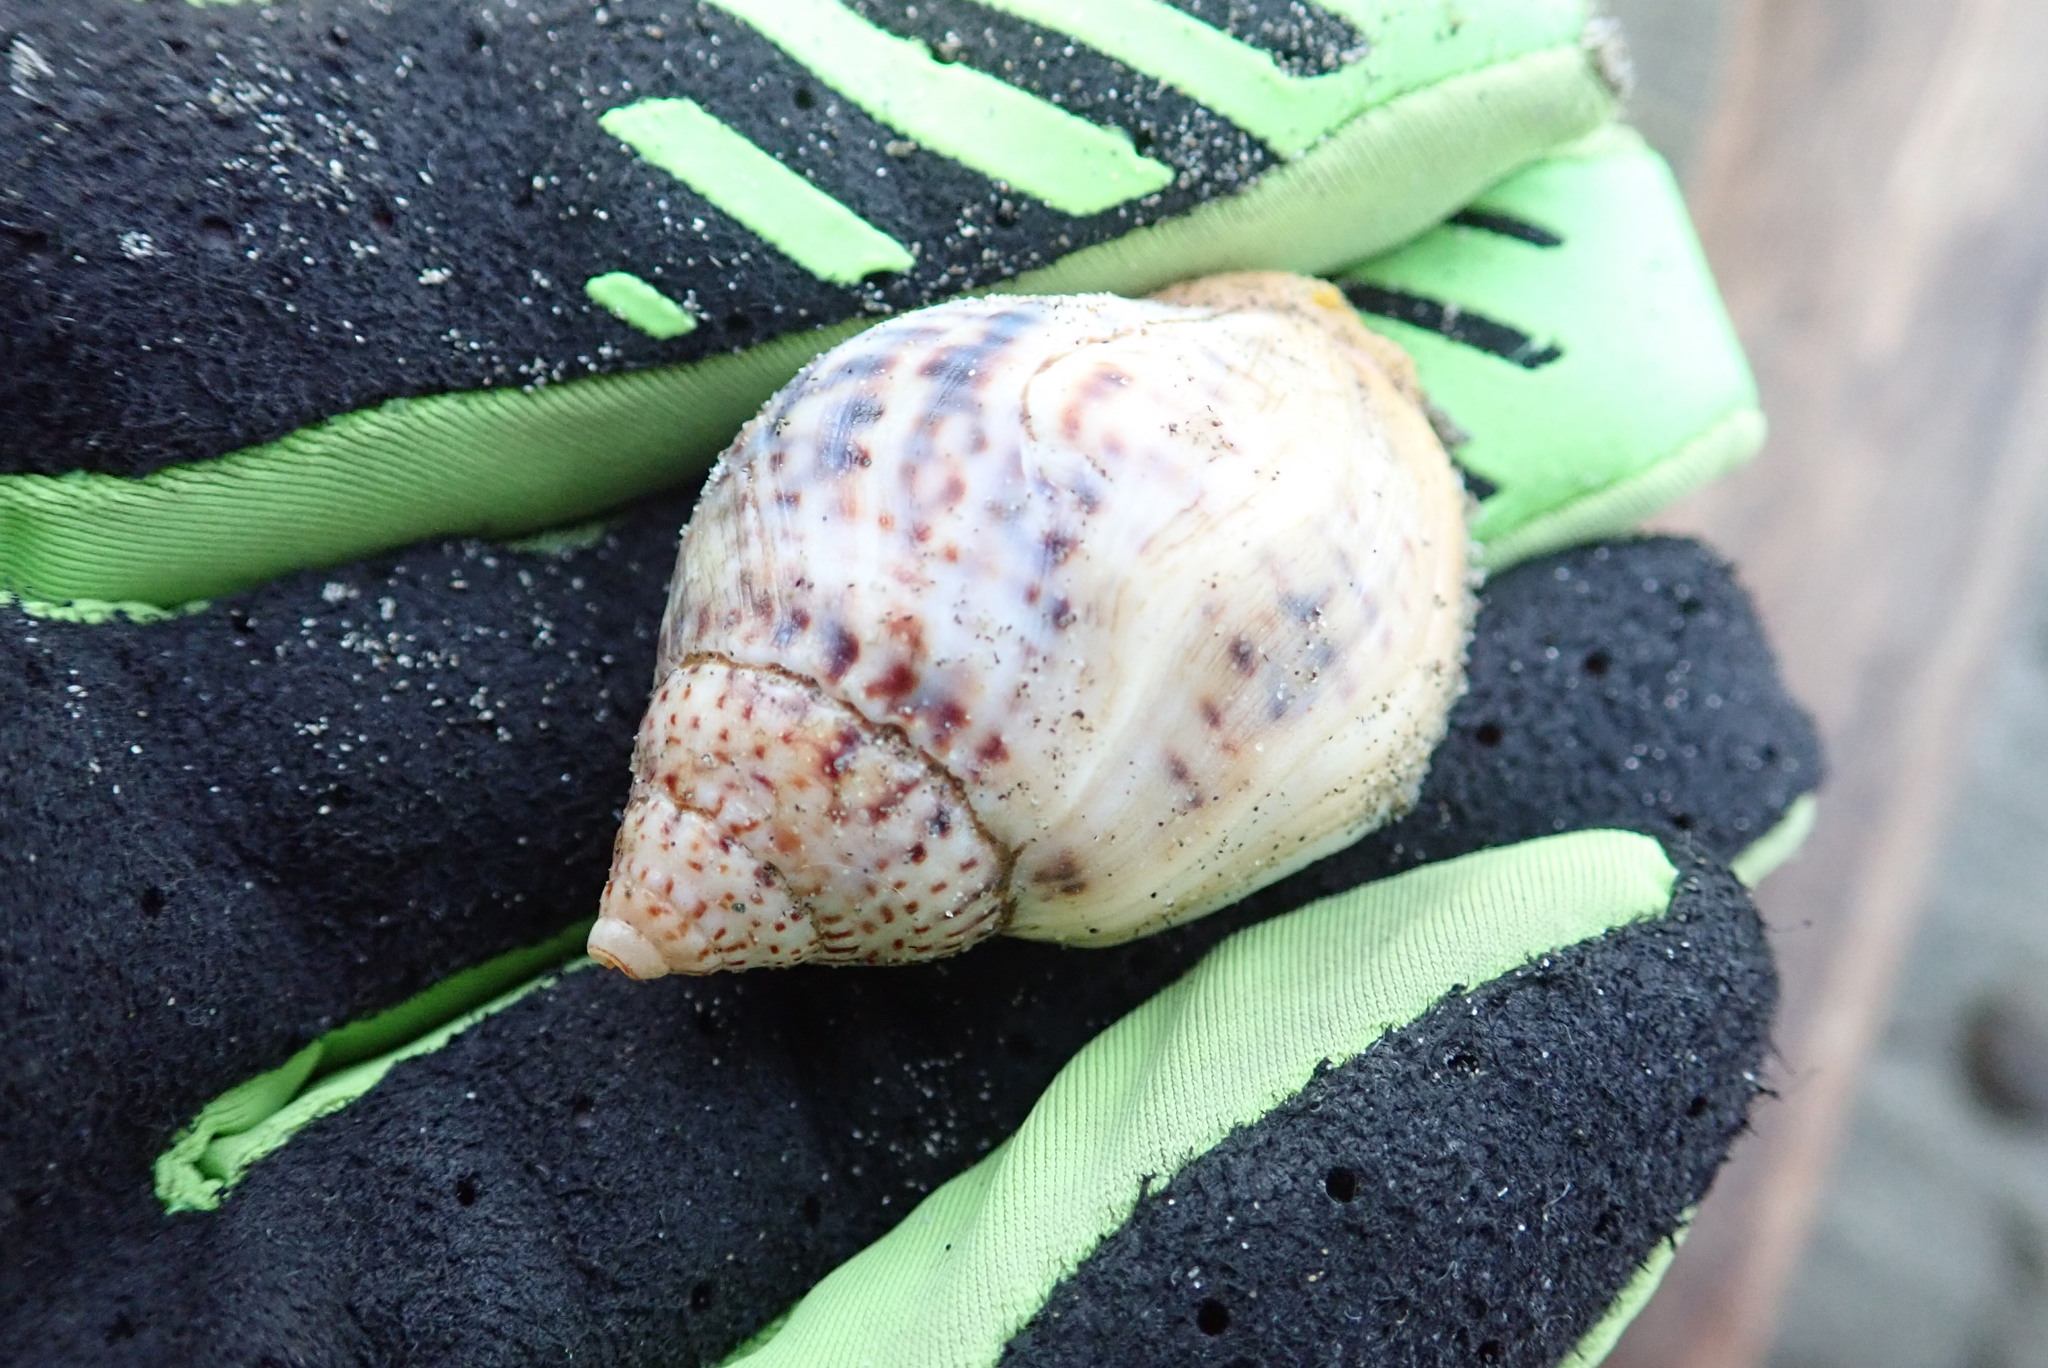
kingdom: Animalia
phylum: Mollusca
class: Gastropoda
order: Neogastropoda
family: Cominellidae
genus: Cominella
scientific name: Cominella adspersa
